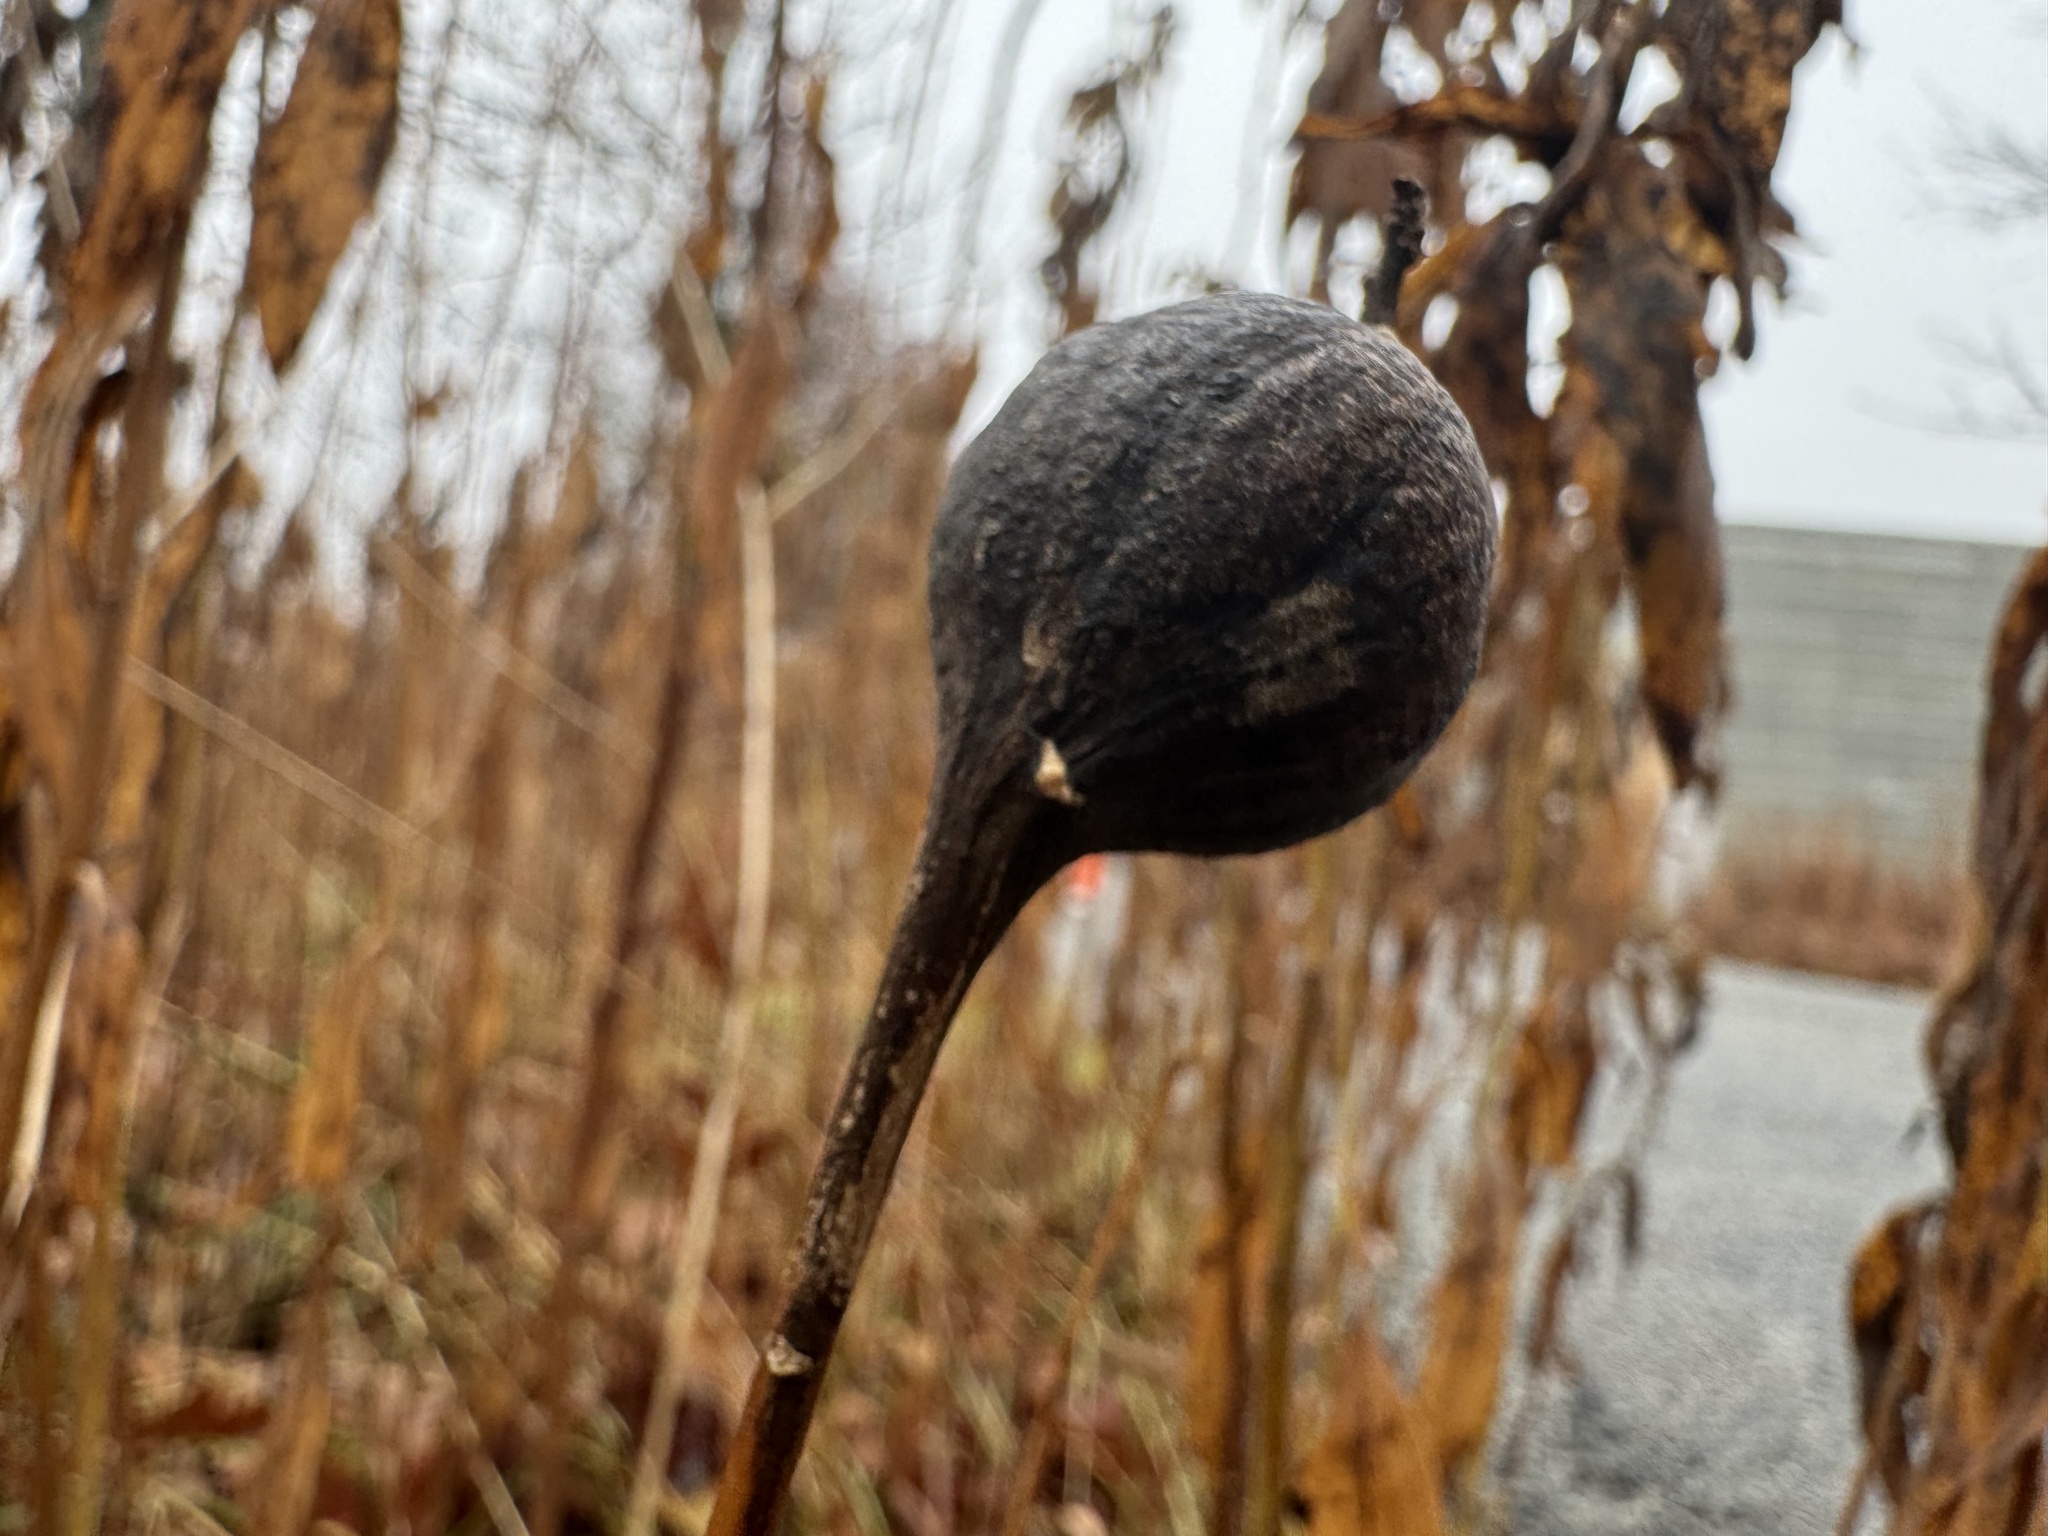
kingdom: Animalia
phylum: Arthropoda
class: Insecta
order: Diptera
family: Tephritidae
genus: Eurosta
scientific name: Eurosta solidaginis
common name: Goldenrod gall fly
